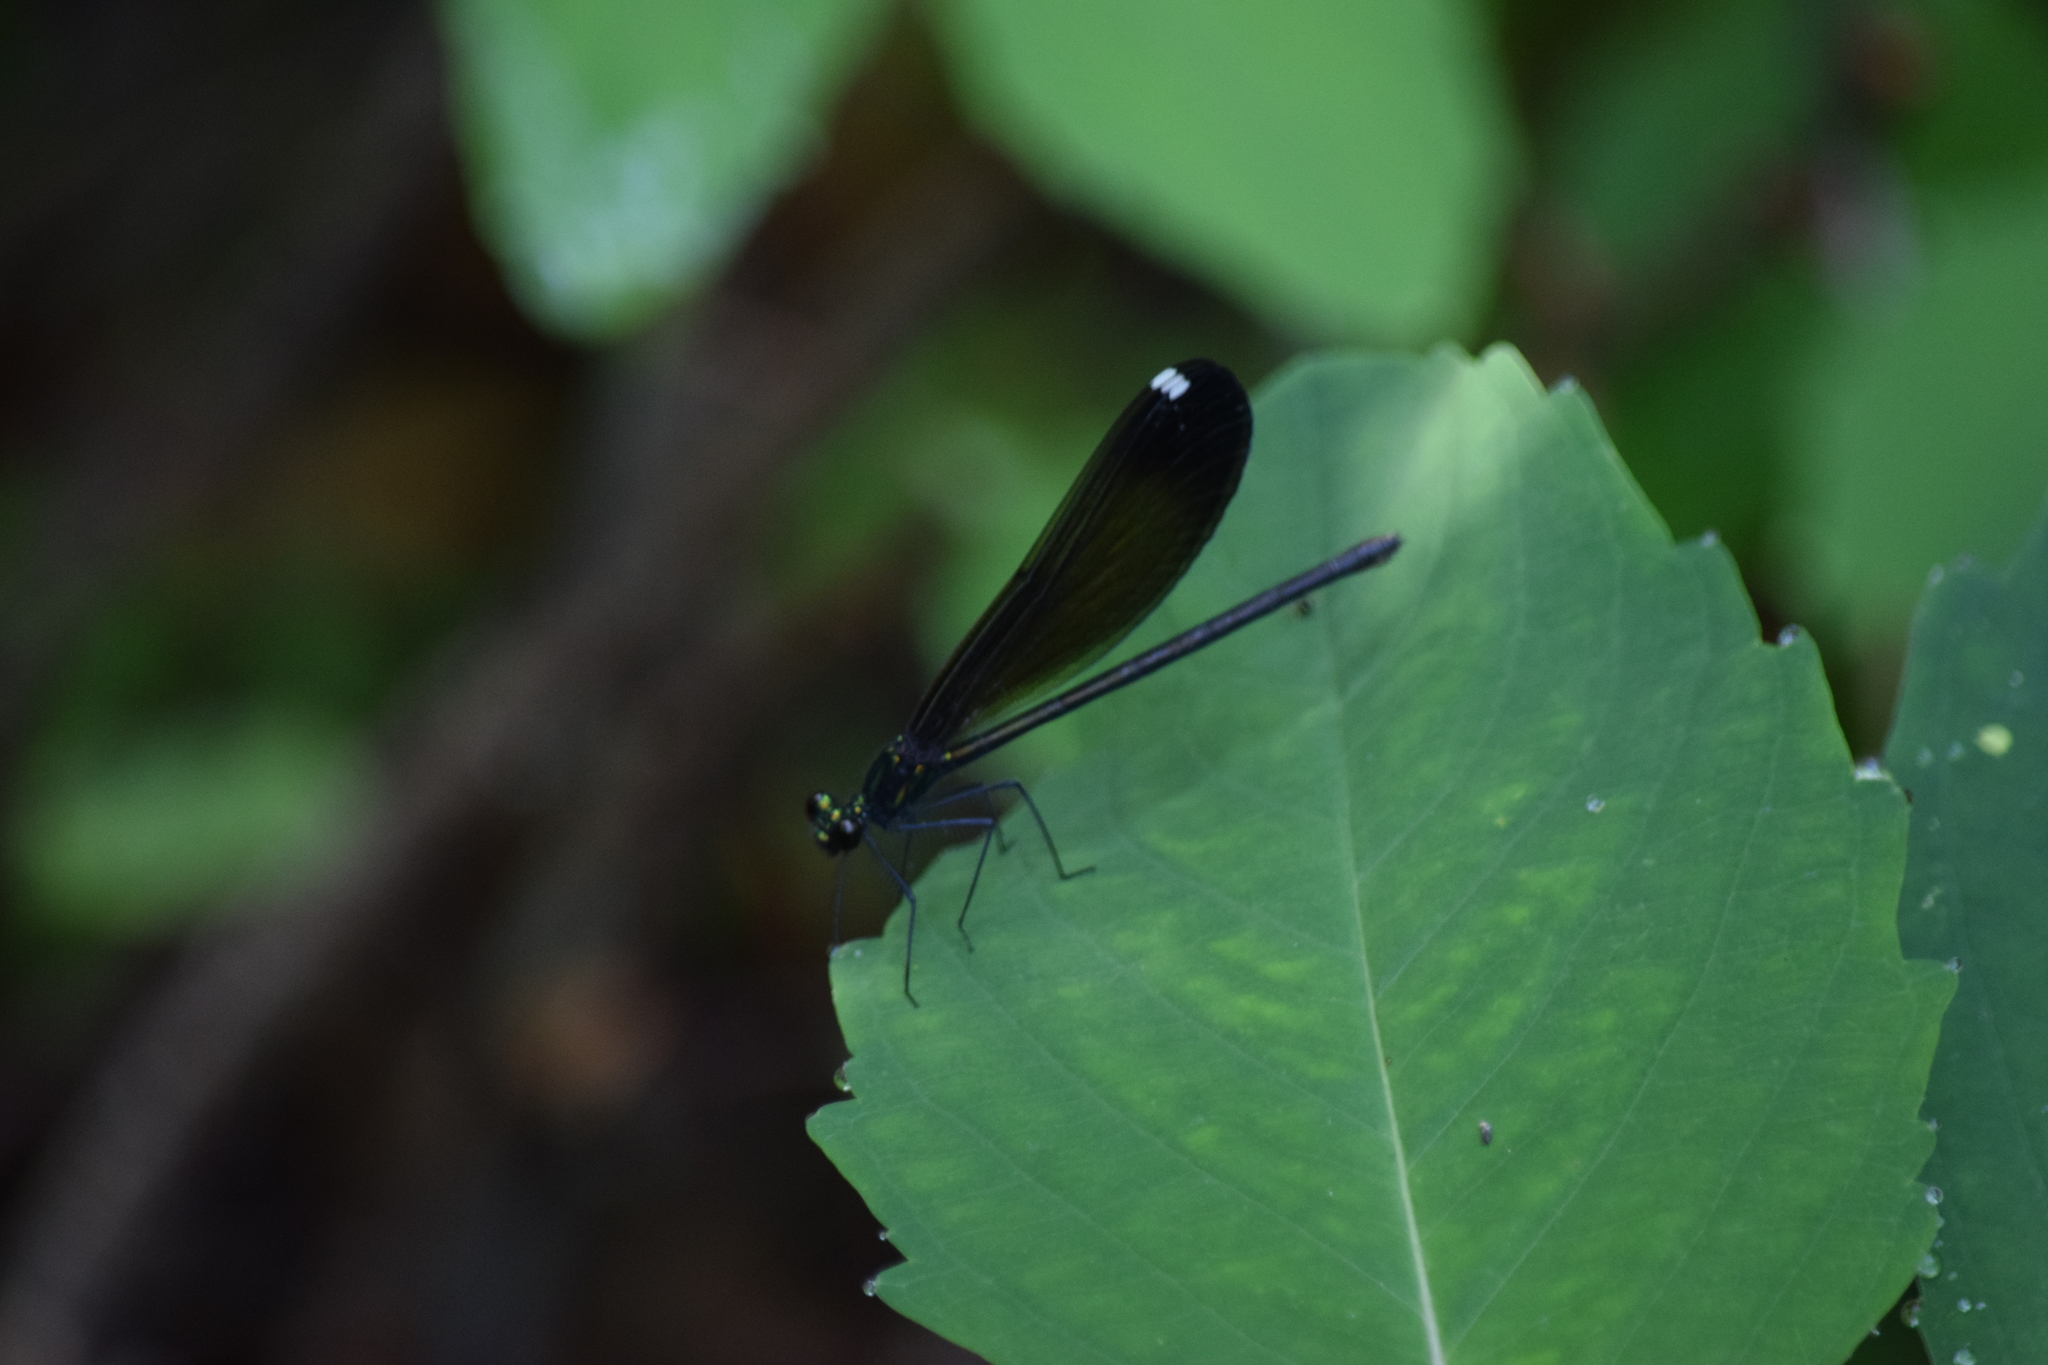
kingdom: Animalia
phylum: Arthropoda
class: Insecta
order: Odonata
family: Calopterygidae
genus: Calopteryx
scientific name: Calopteryx maculata
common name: Ebony jewelwing
